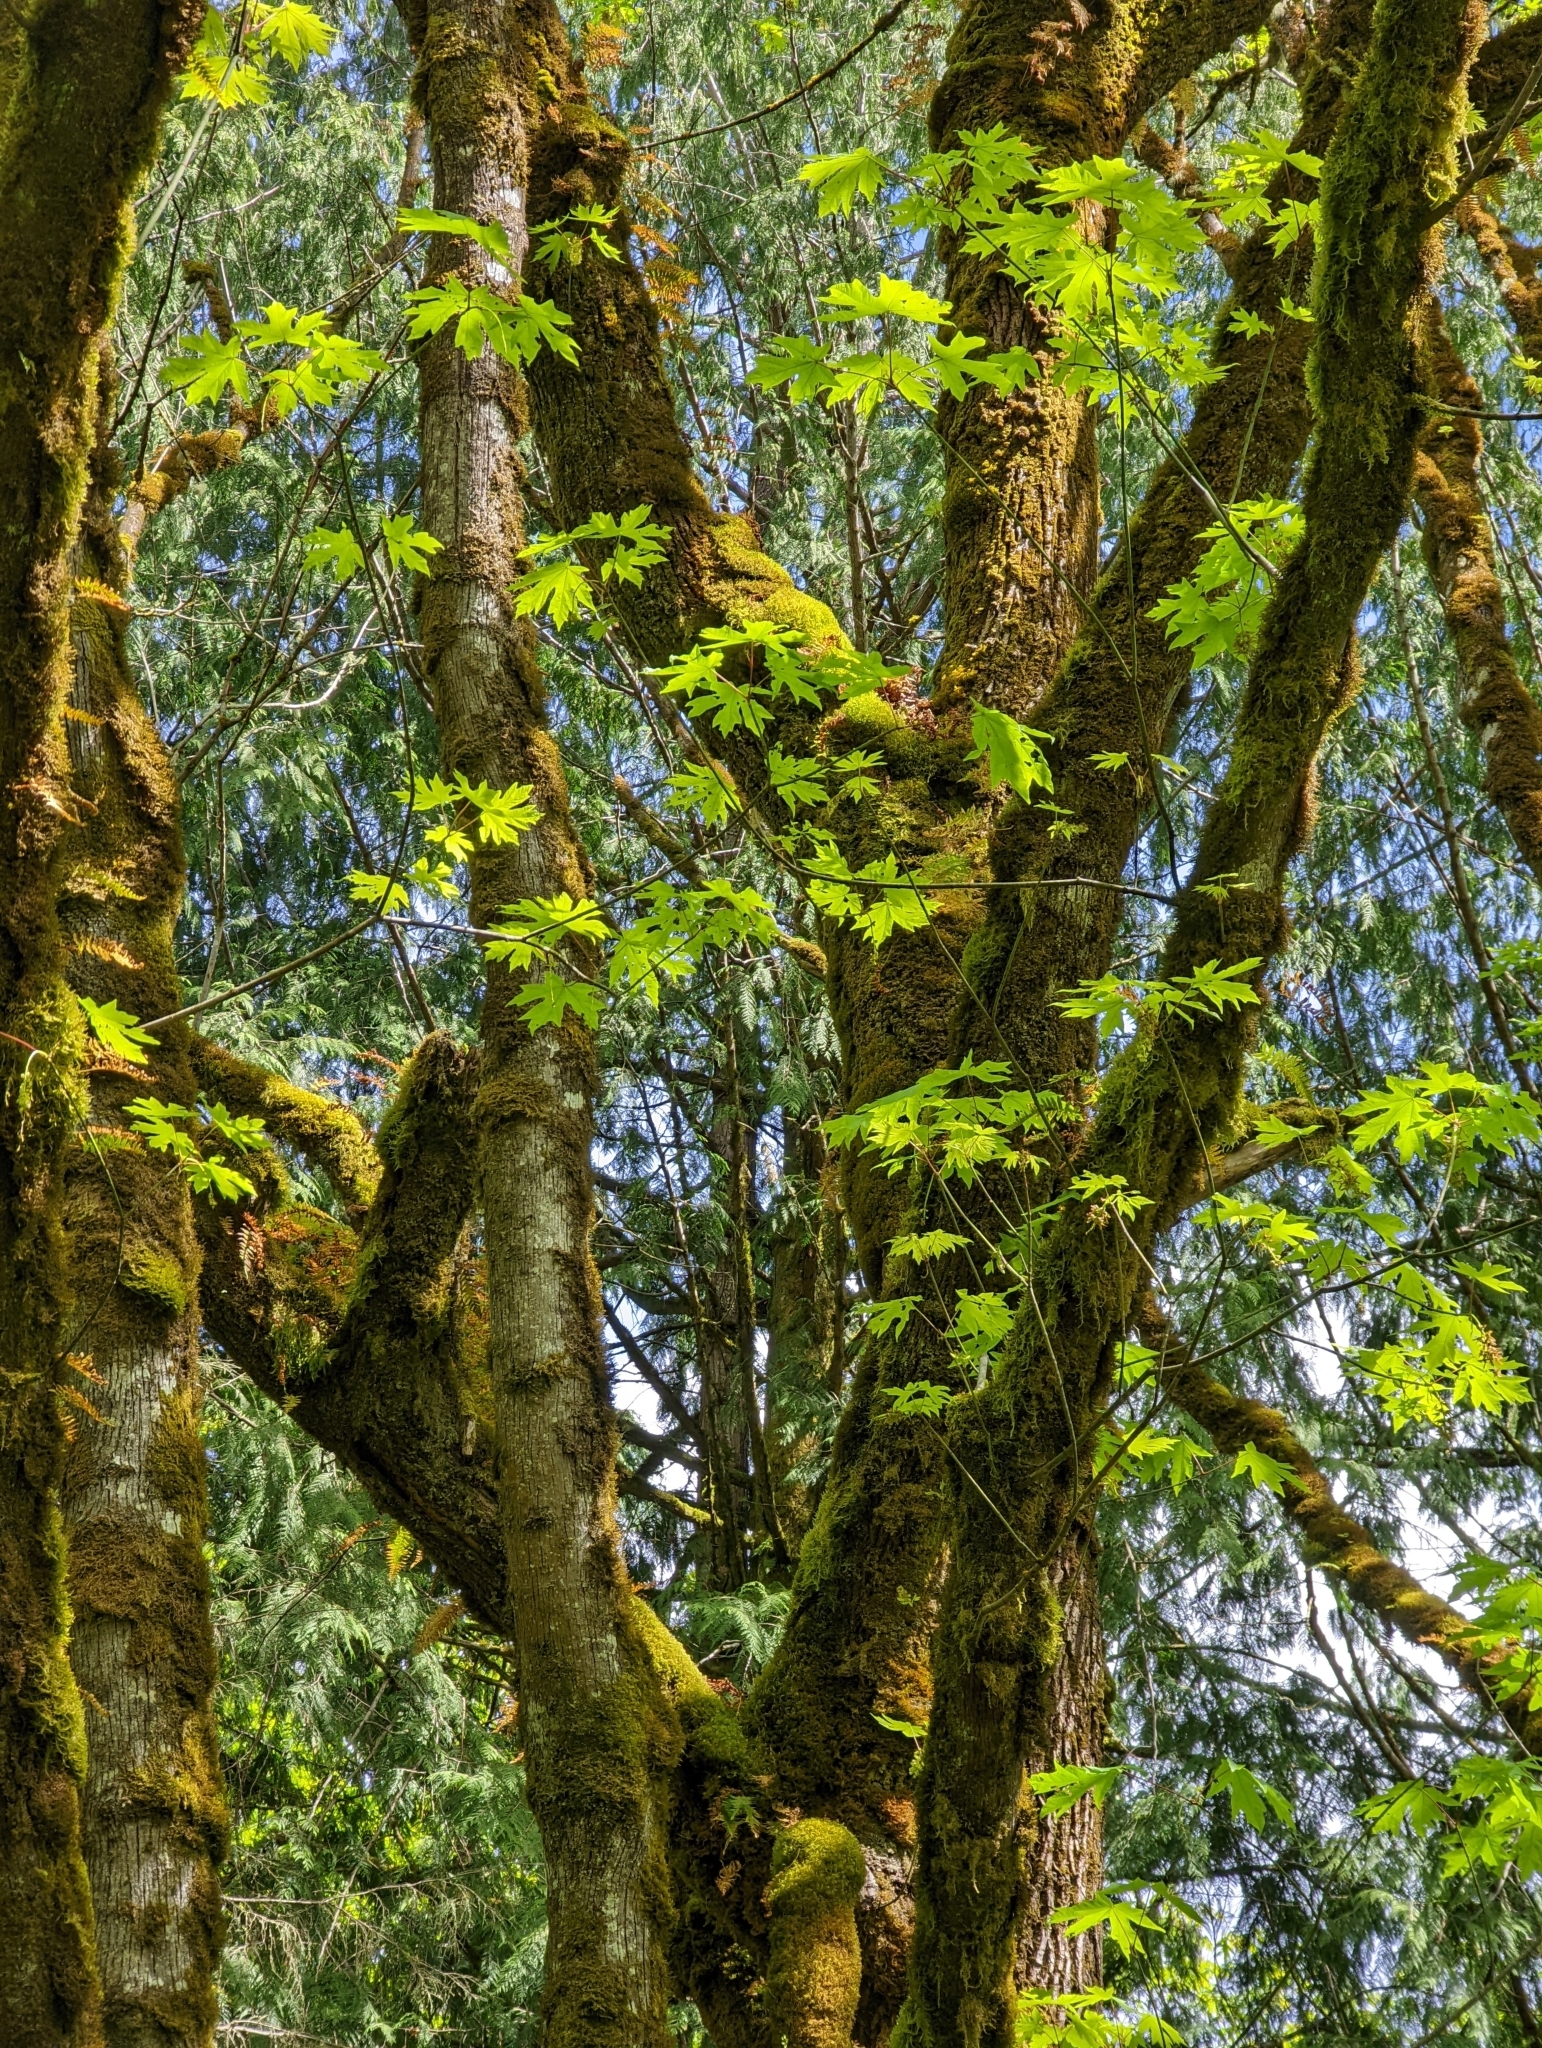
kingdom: Plantae
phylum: Tracheophyta
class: Magnoliopsida
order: Sapindales
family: Sapindaceae
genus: Acer
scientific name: Acer macrophyllum
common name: Oregon maple
